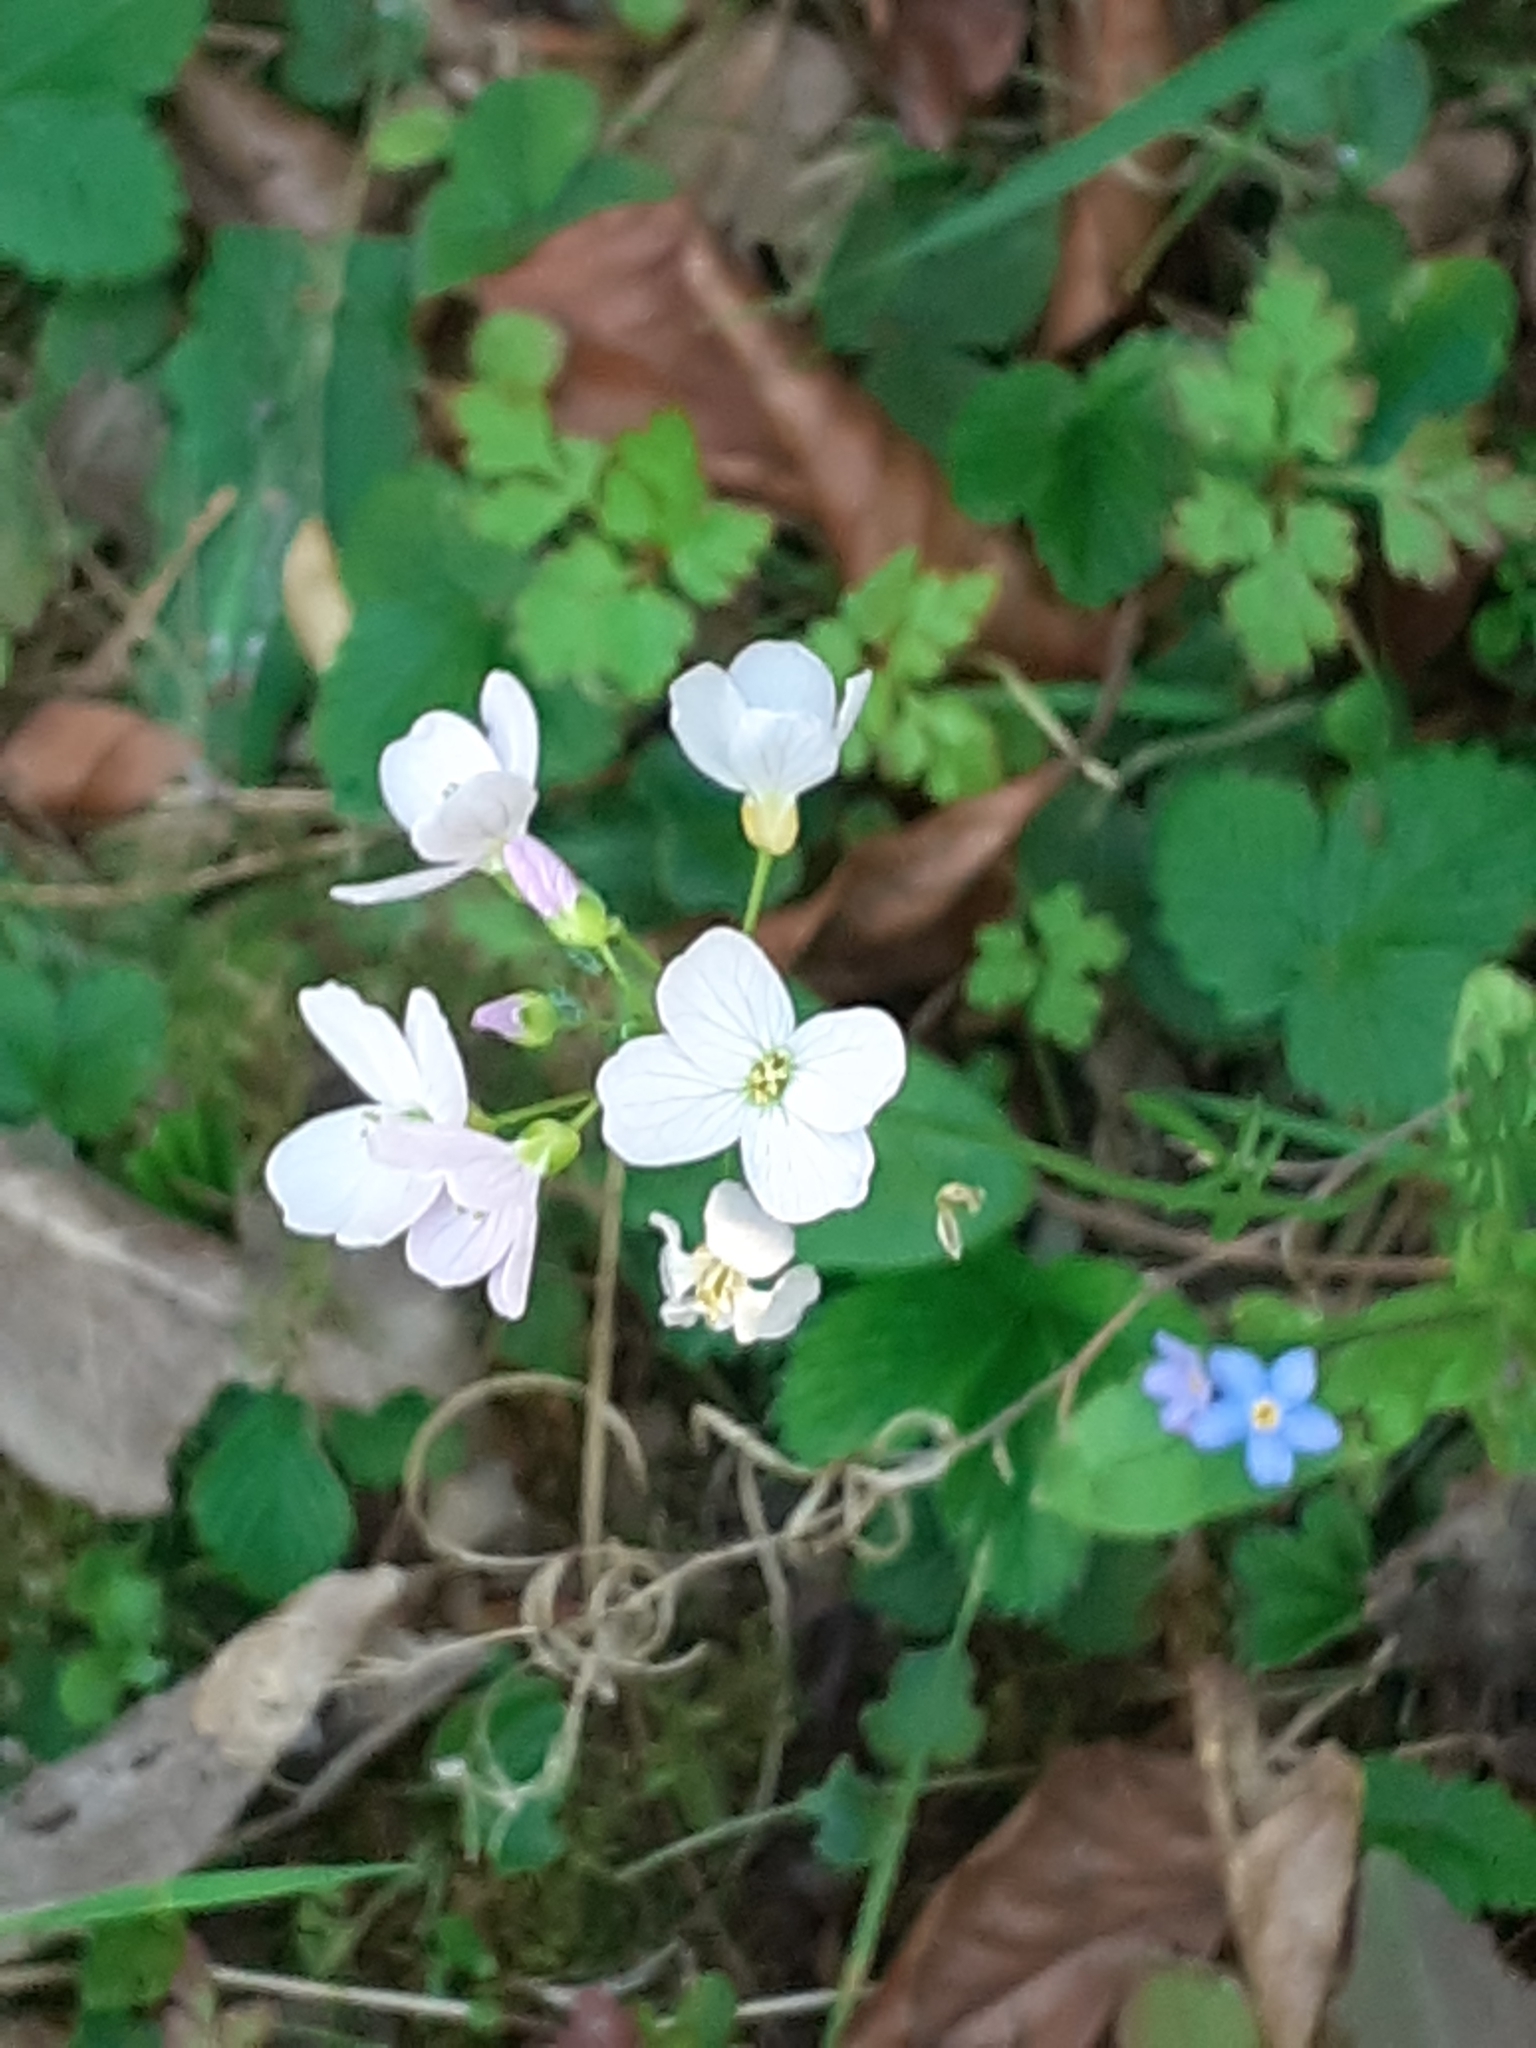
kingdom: Plantae
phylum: Tracheophyta
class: Magnoliopsida
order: Brassicales
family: Brassicaceae
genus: Cardamine
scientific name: Cardamine pratensis
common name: Cuckoo flower
